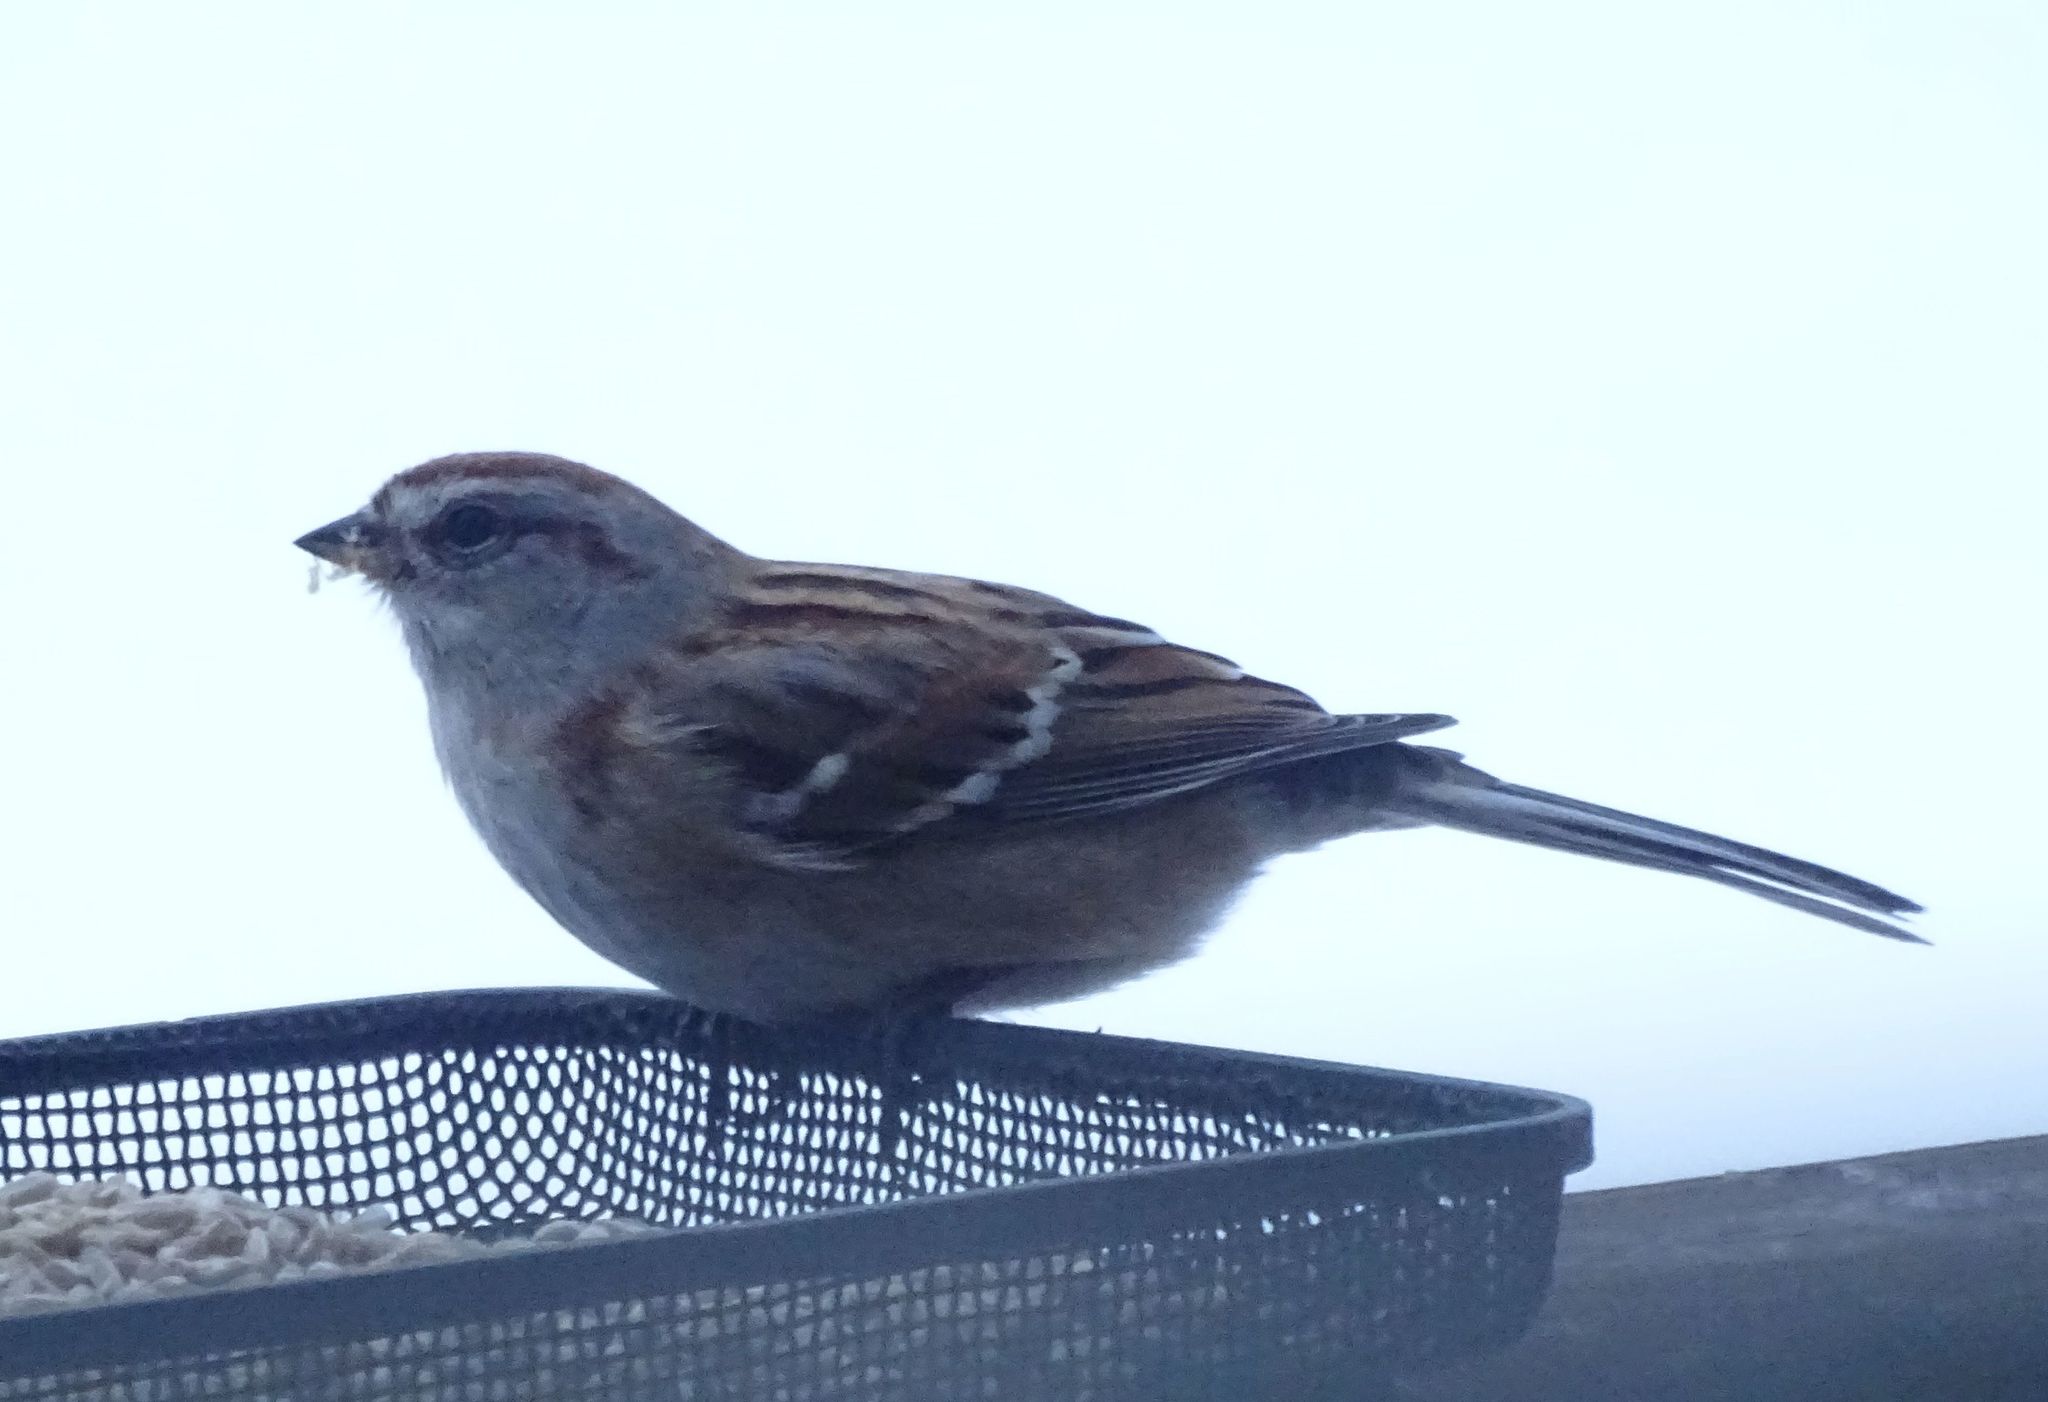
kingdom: Animalia
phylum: Chordata
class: Aves
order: Passeriformes
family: Passerellidae
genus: Spizelloides
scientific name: Spizelloides arborea
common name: American tree sparrow
